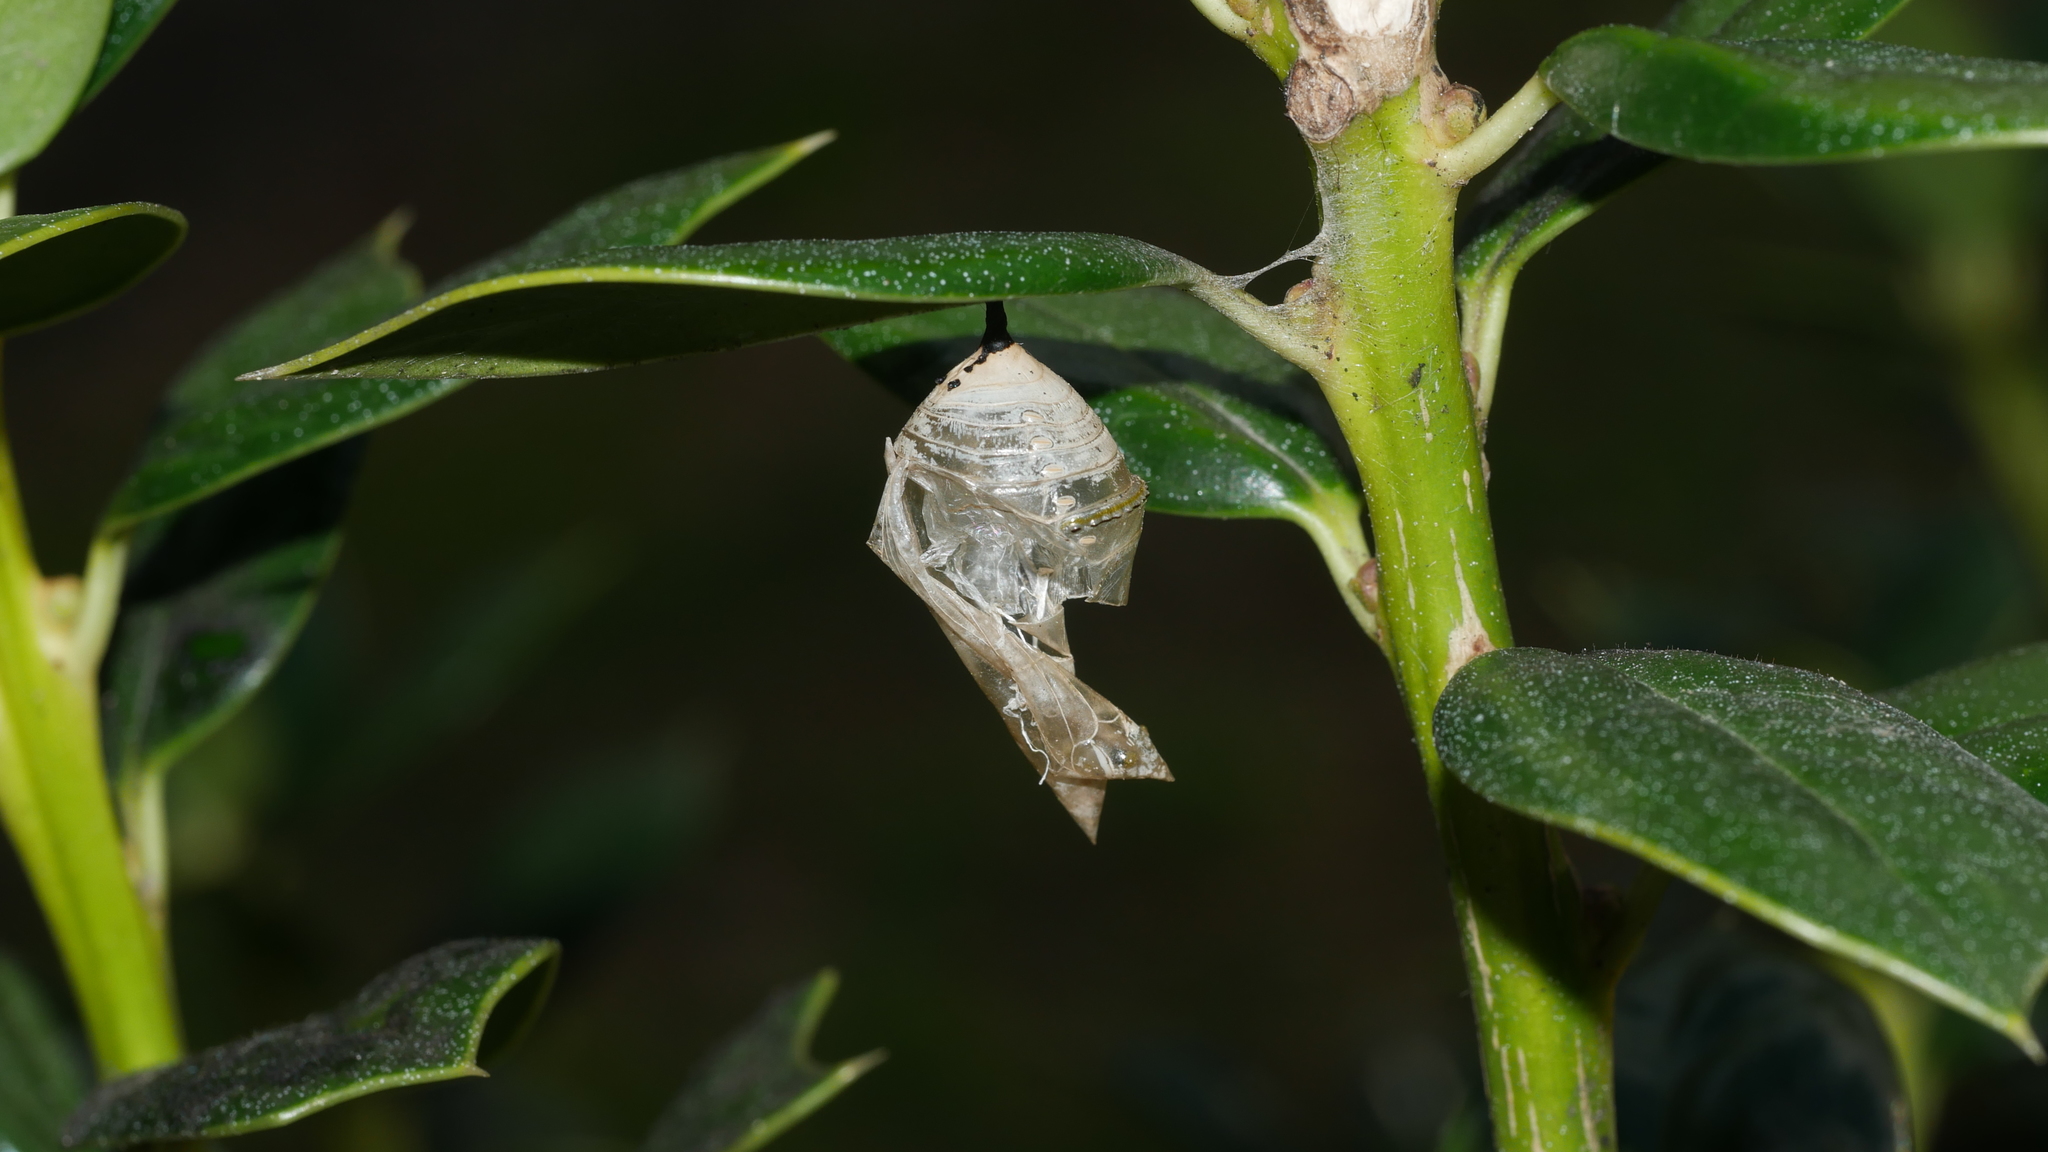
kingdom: Animalia
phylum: Arthropoda
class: Insecta
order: Lepidoptera
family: Nymphalidae
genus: Danaus
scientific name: Danaus plexippus
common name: Monarch
